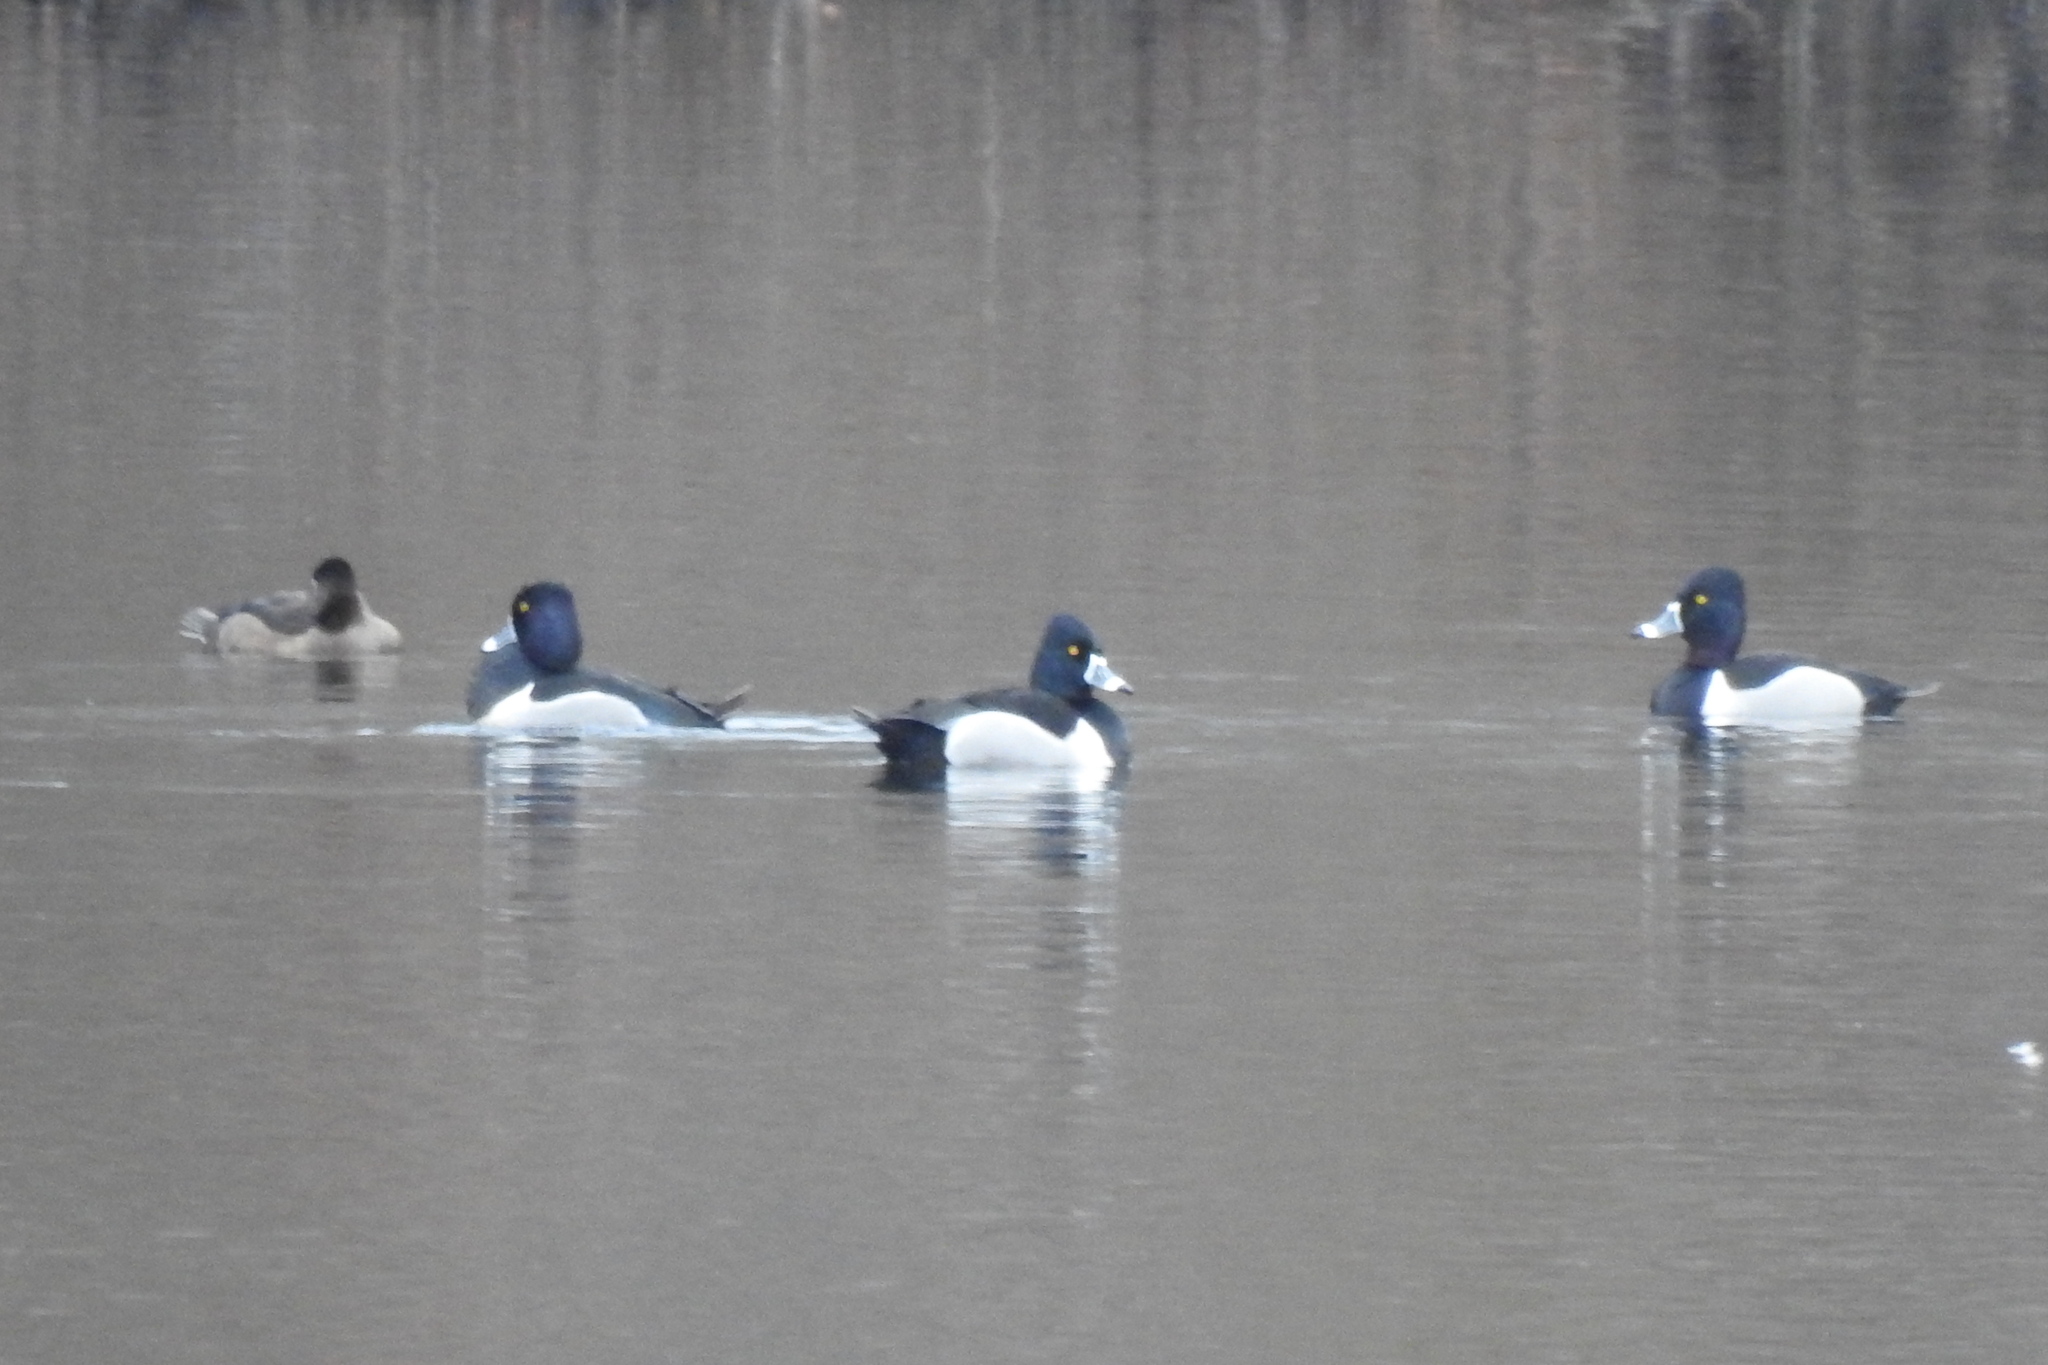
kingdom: Animalia
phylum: Chordata
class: Aves
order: Anseriformes
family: Anatidae
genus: Aythya
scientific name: Aythya collaris
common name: Ring-necked duck
